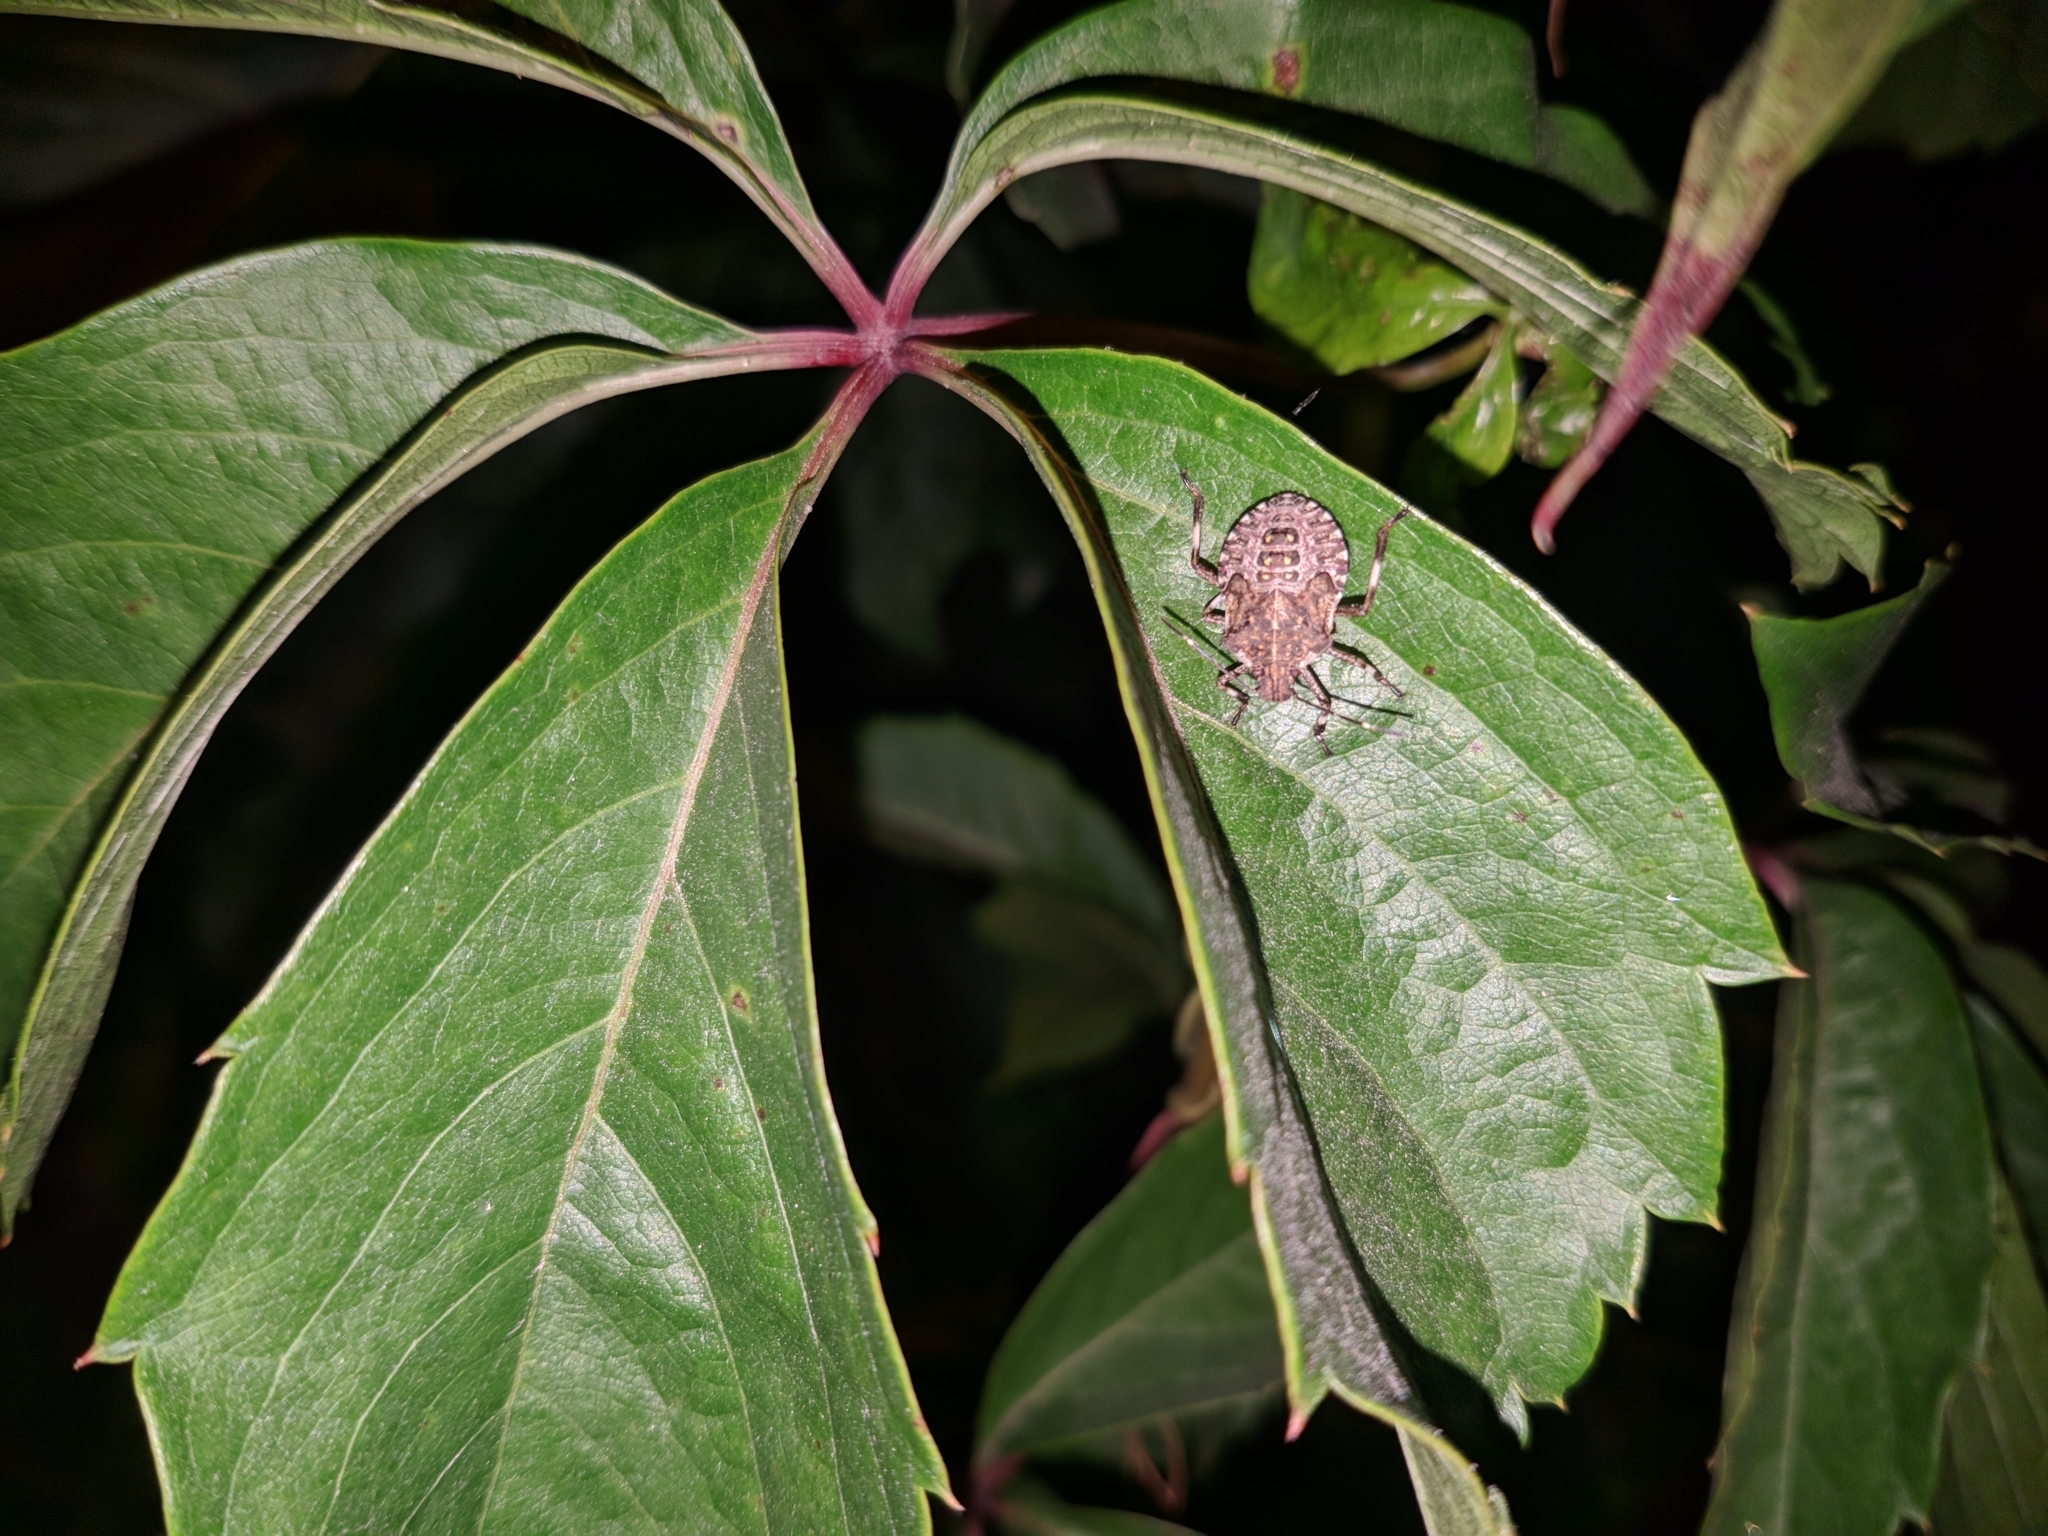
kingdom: Animalia
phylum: Arthropoda
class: Insecta
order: Hemiptera
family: Pentatomidae
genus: Halyomorpha
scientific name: Halyomorpha halys
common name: Brown marmorated stink bug
